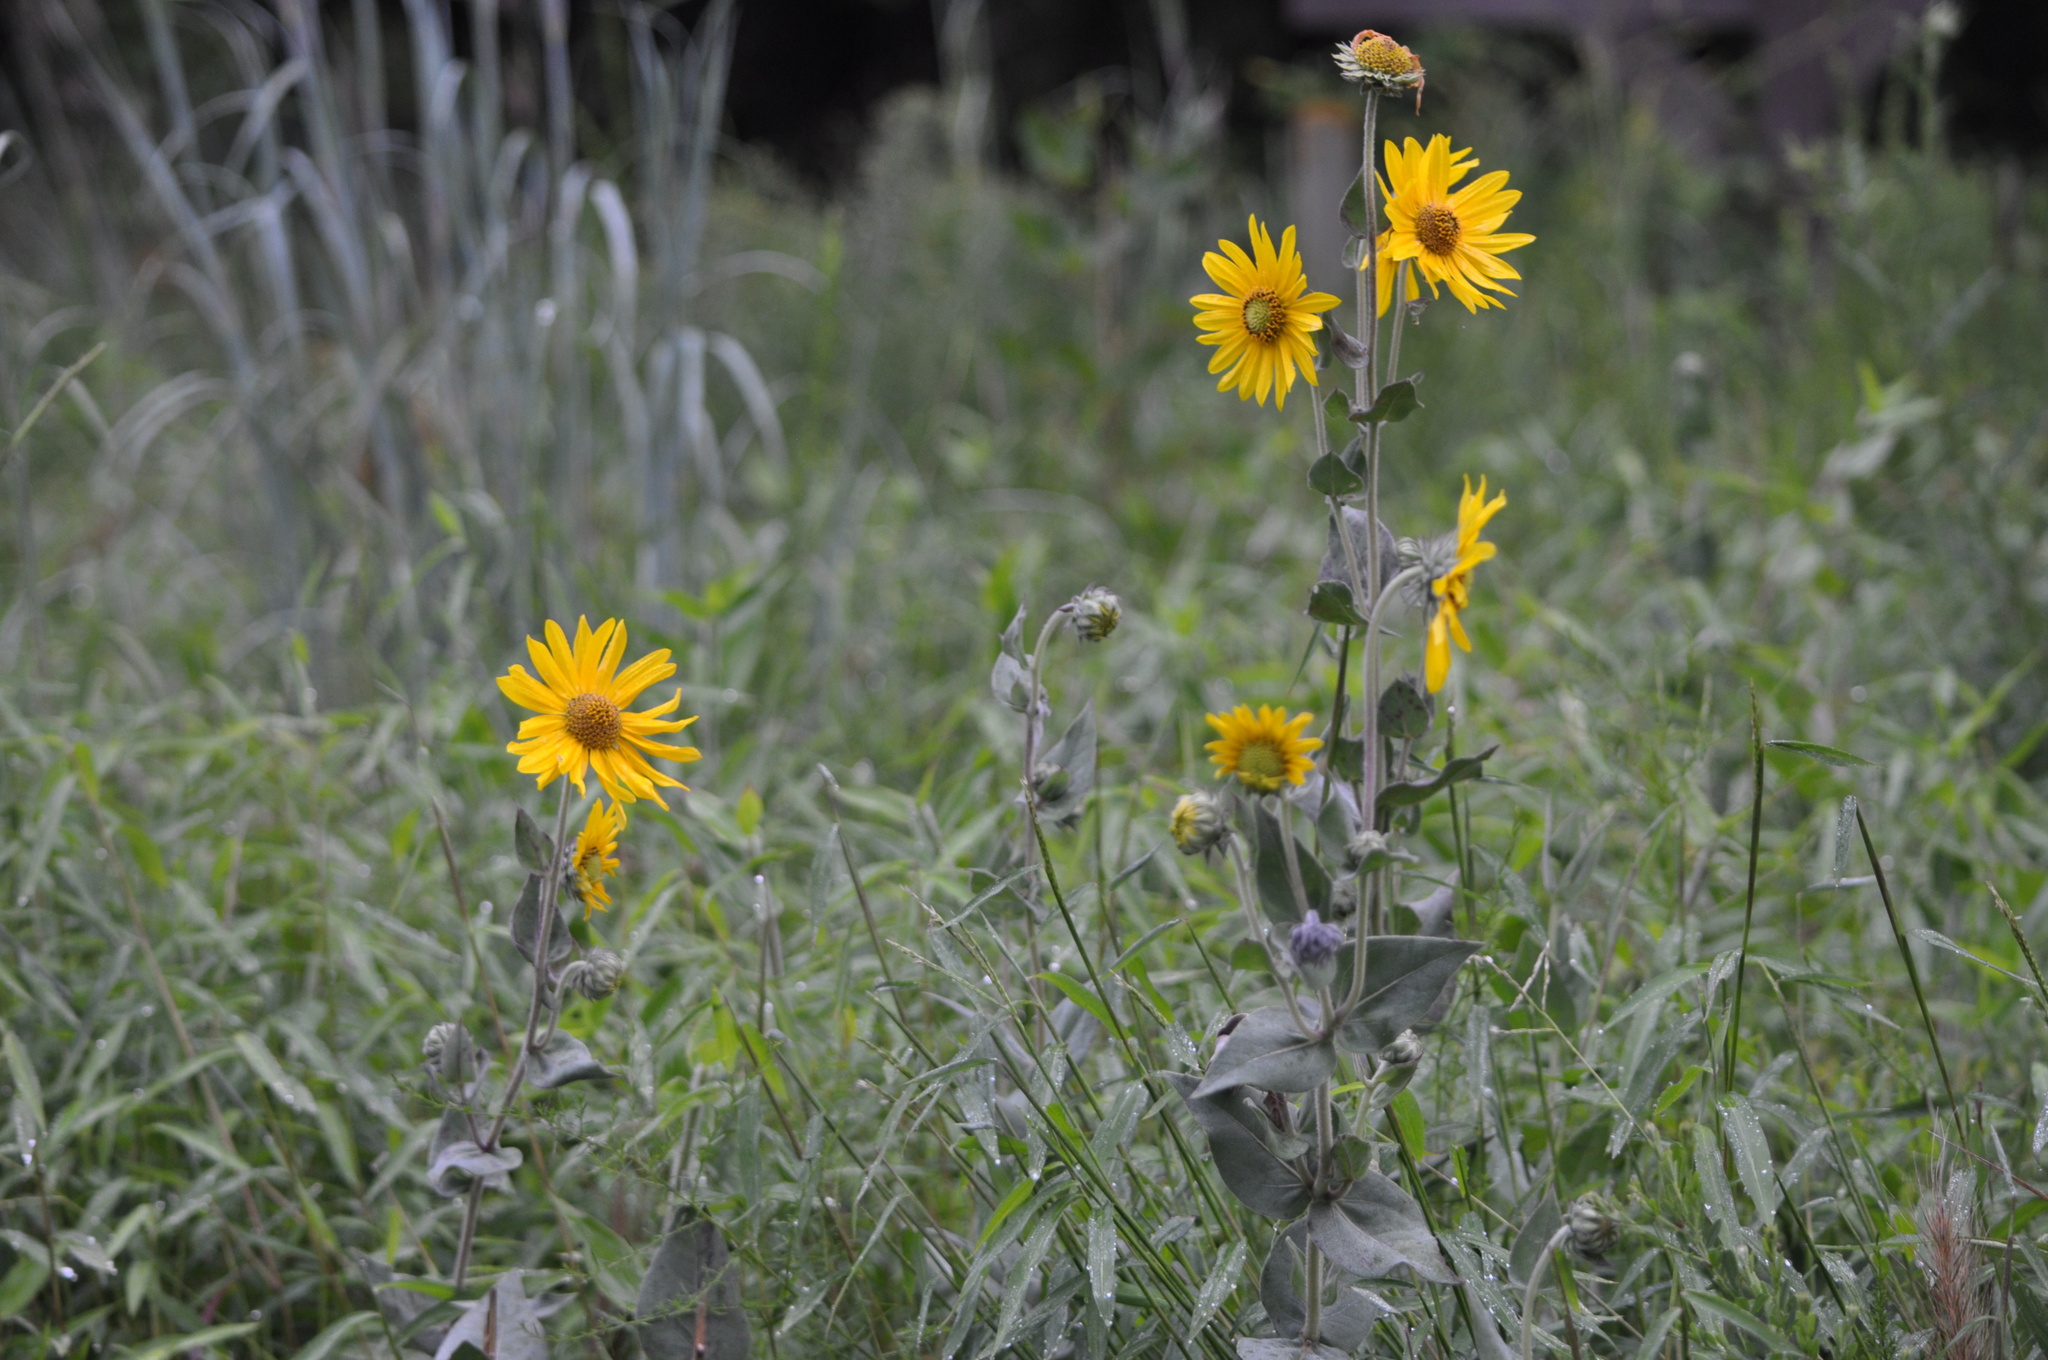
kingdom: Plantae
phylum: Tracheophyta
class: Magnoliopsida
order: Asterales
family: Asteraceae
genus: Helianthus
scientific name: Helianthus mollis
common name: Ashy sunflower
